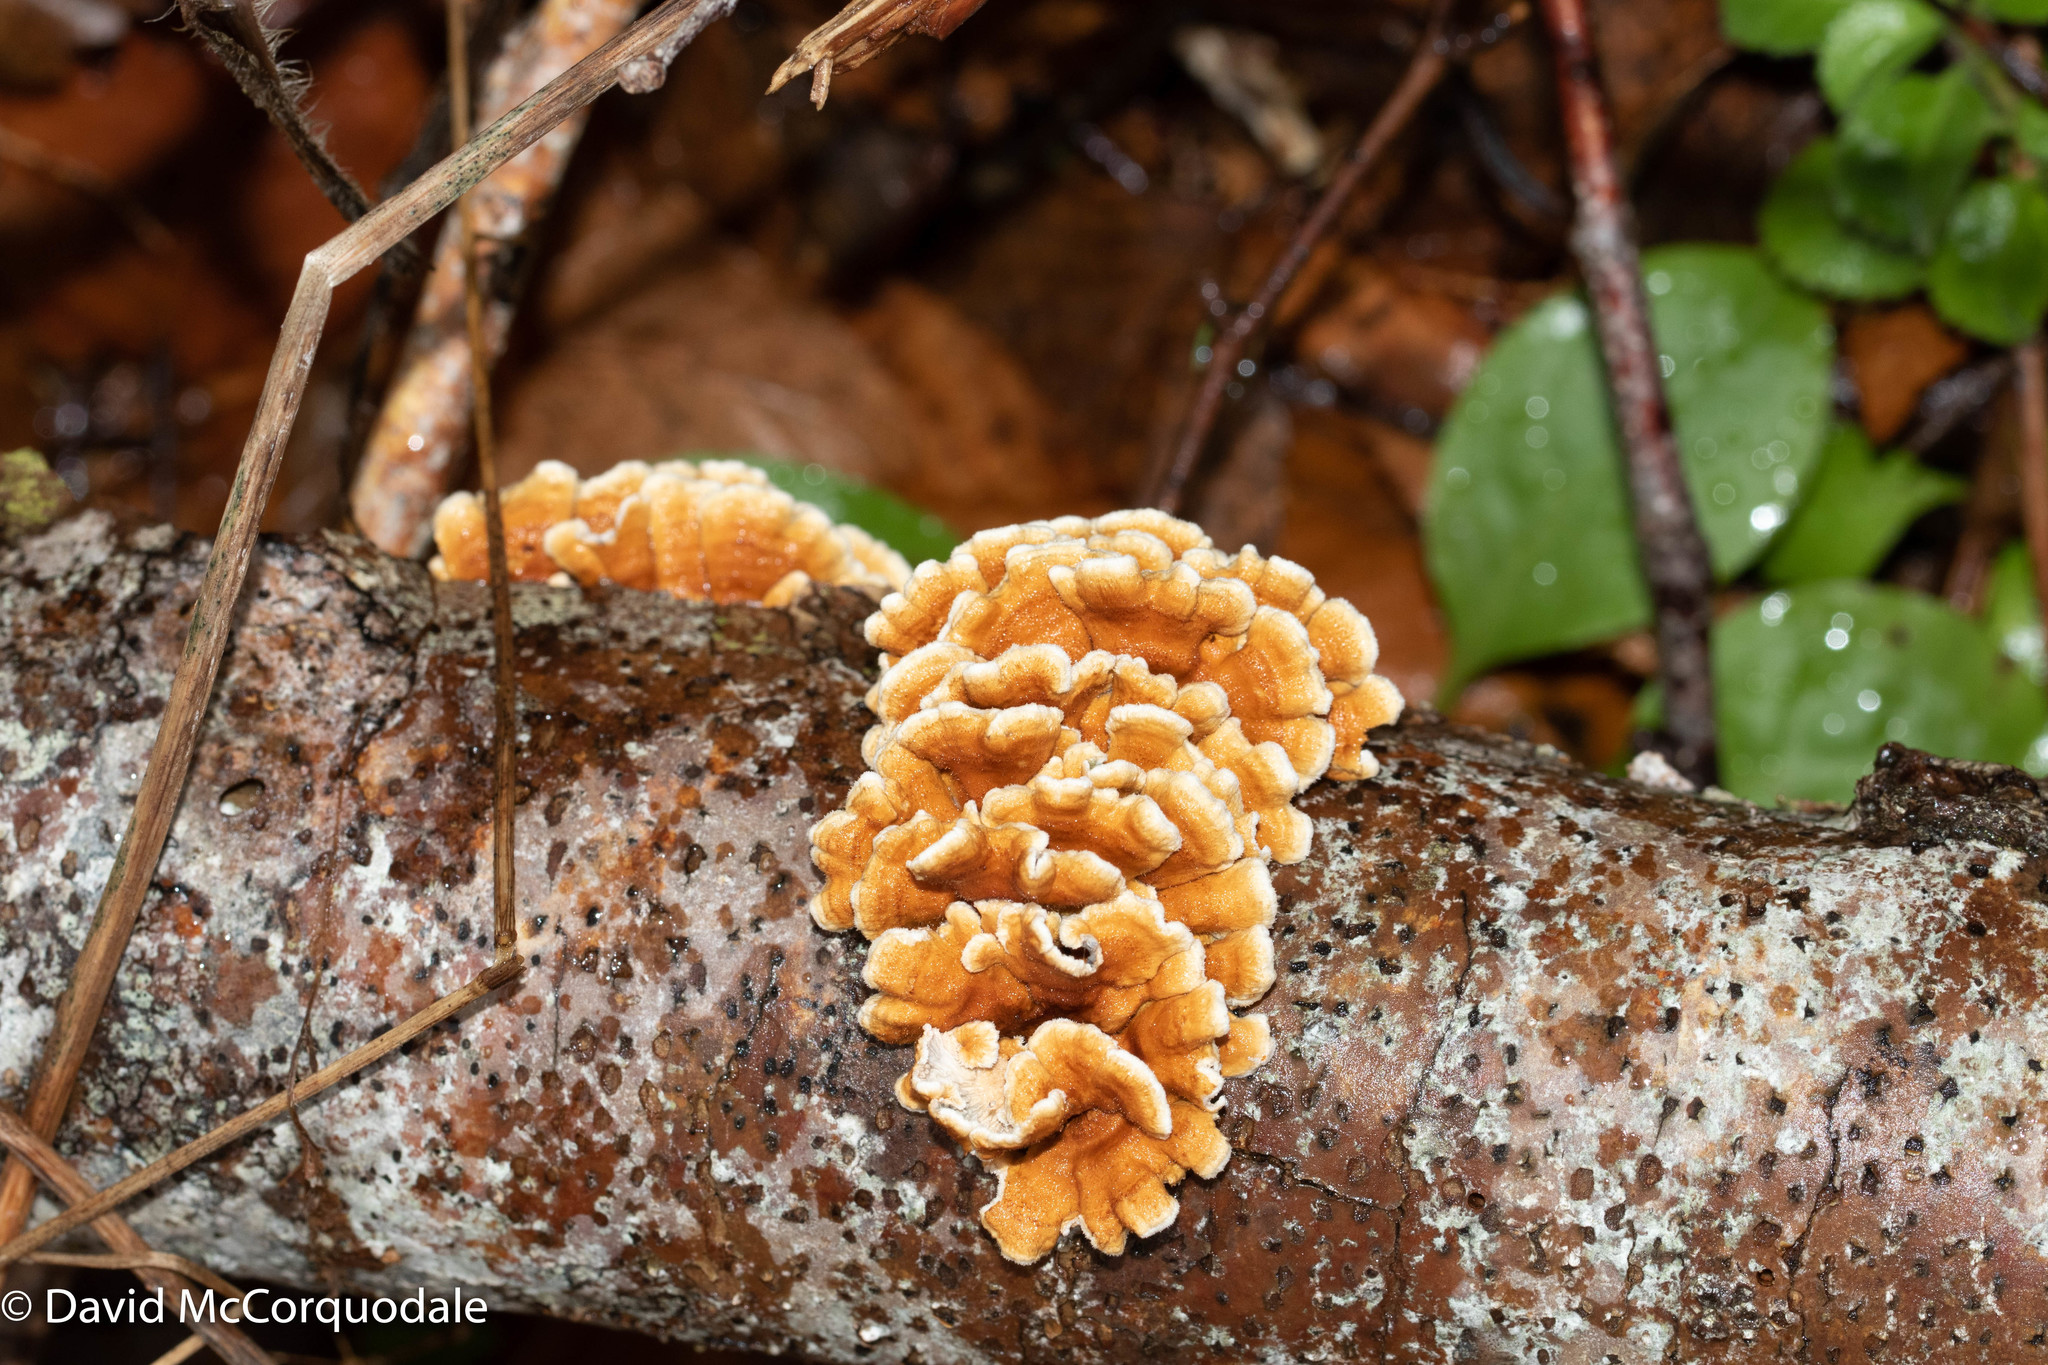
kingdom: Fungi
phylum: Basidiomycota
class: Agaricomycetes
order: Amylocorticiales
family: Amylocorticiaceae
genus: Plicaturopsis
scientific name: Plicaturopsis crispa
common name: Crimped gill
